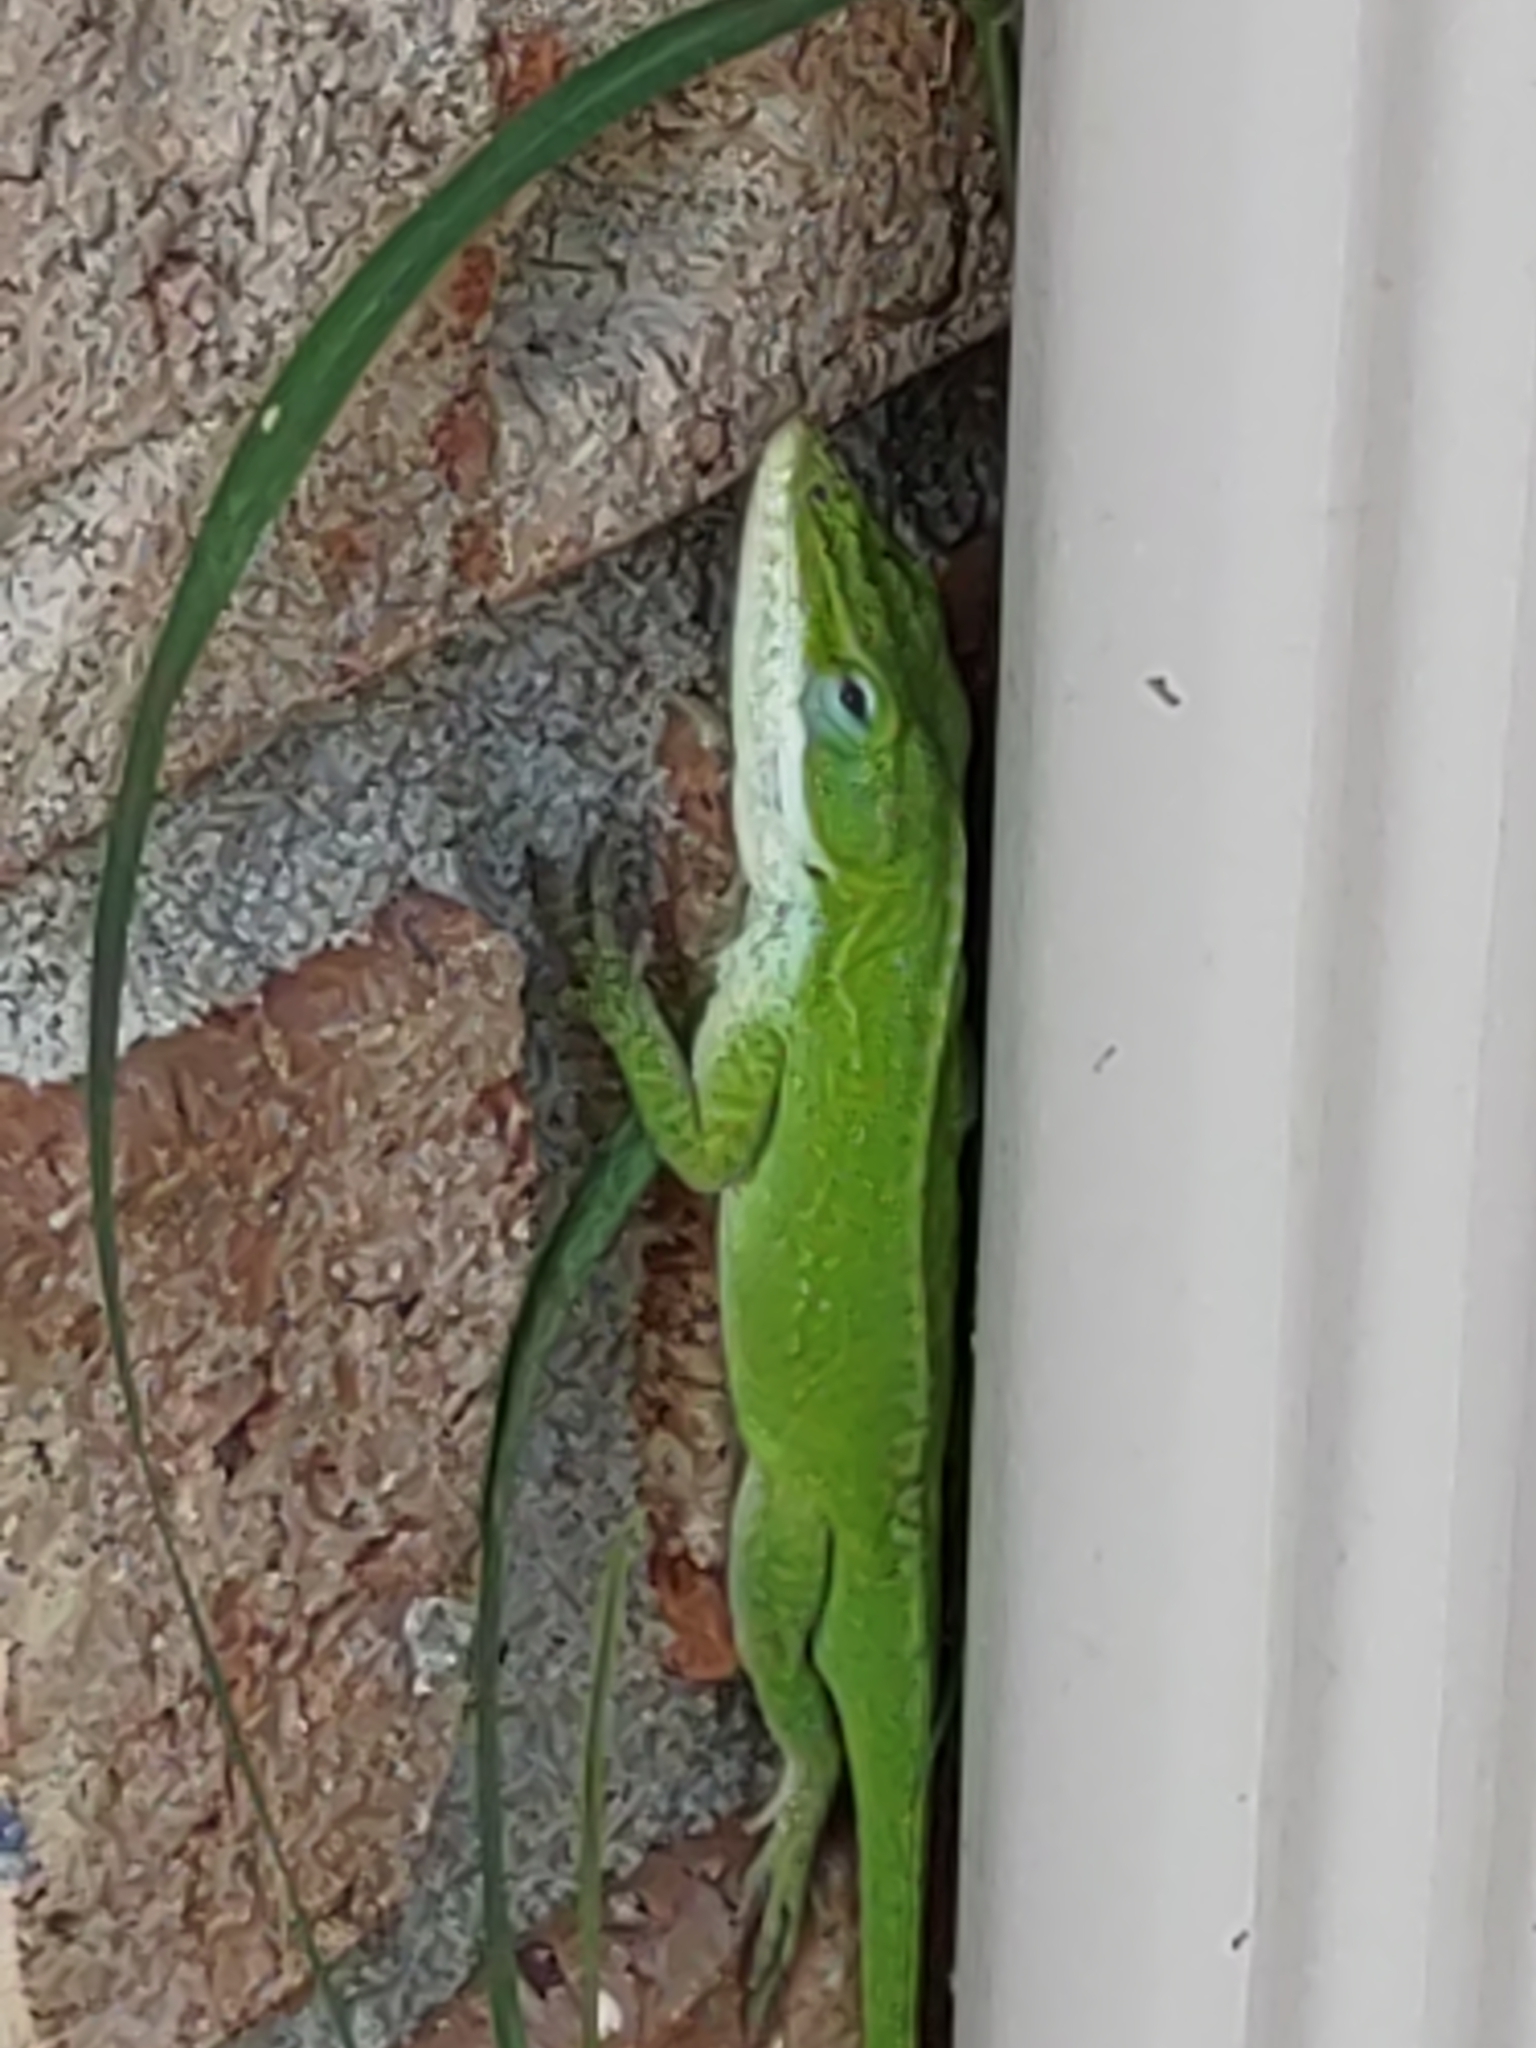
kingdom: Animalia
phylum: Chordata
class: Squamata
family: Dactyloidae
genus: Anolis
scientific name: Anolis carolinensis
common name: Green anole
